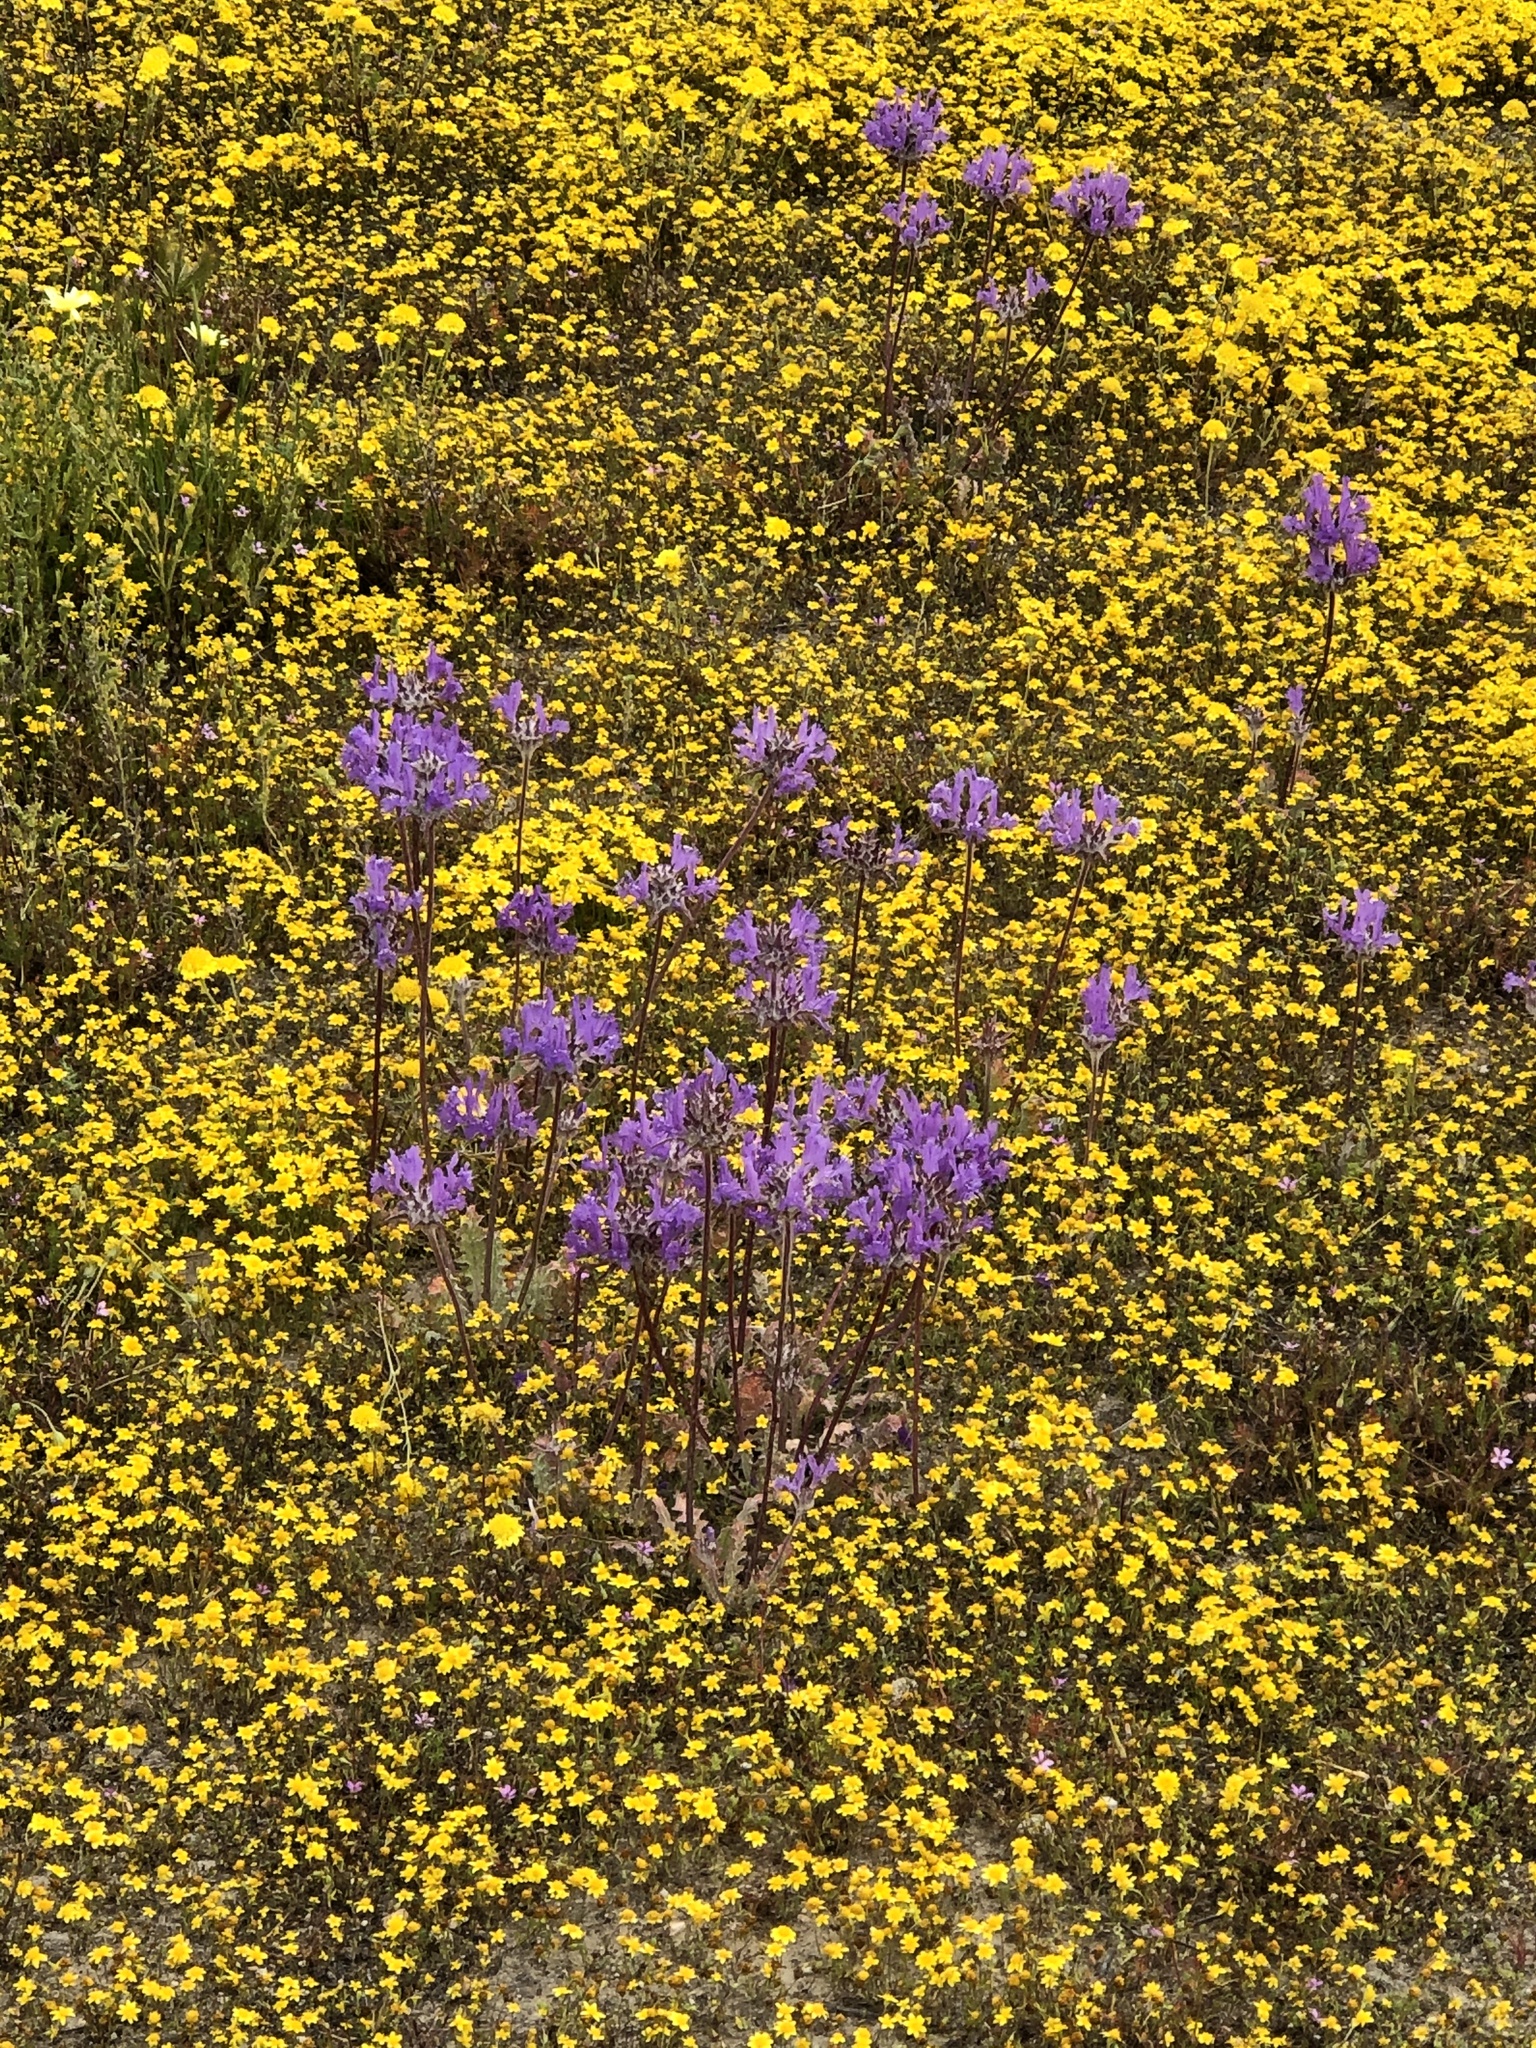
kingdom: Plantae
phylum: Tracheophyta
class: Magnoliopsida
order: Lamiales
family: Lamiaceae
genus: Salvia
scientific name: Salvia carduacea
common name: Thistle sage
